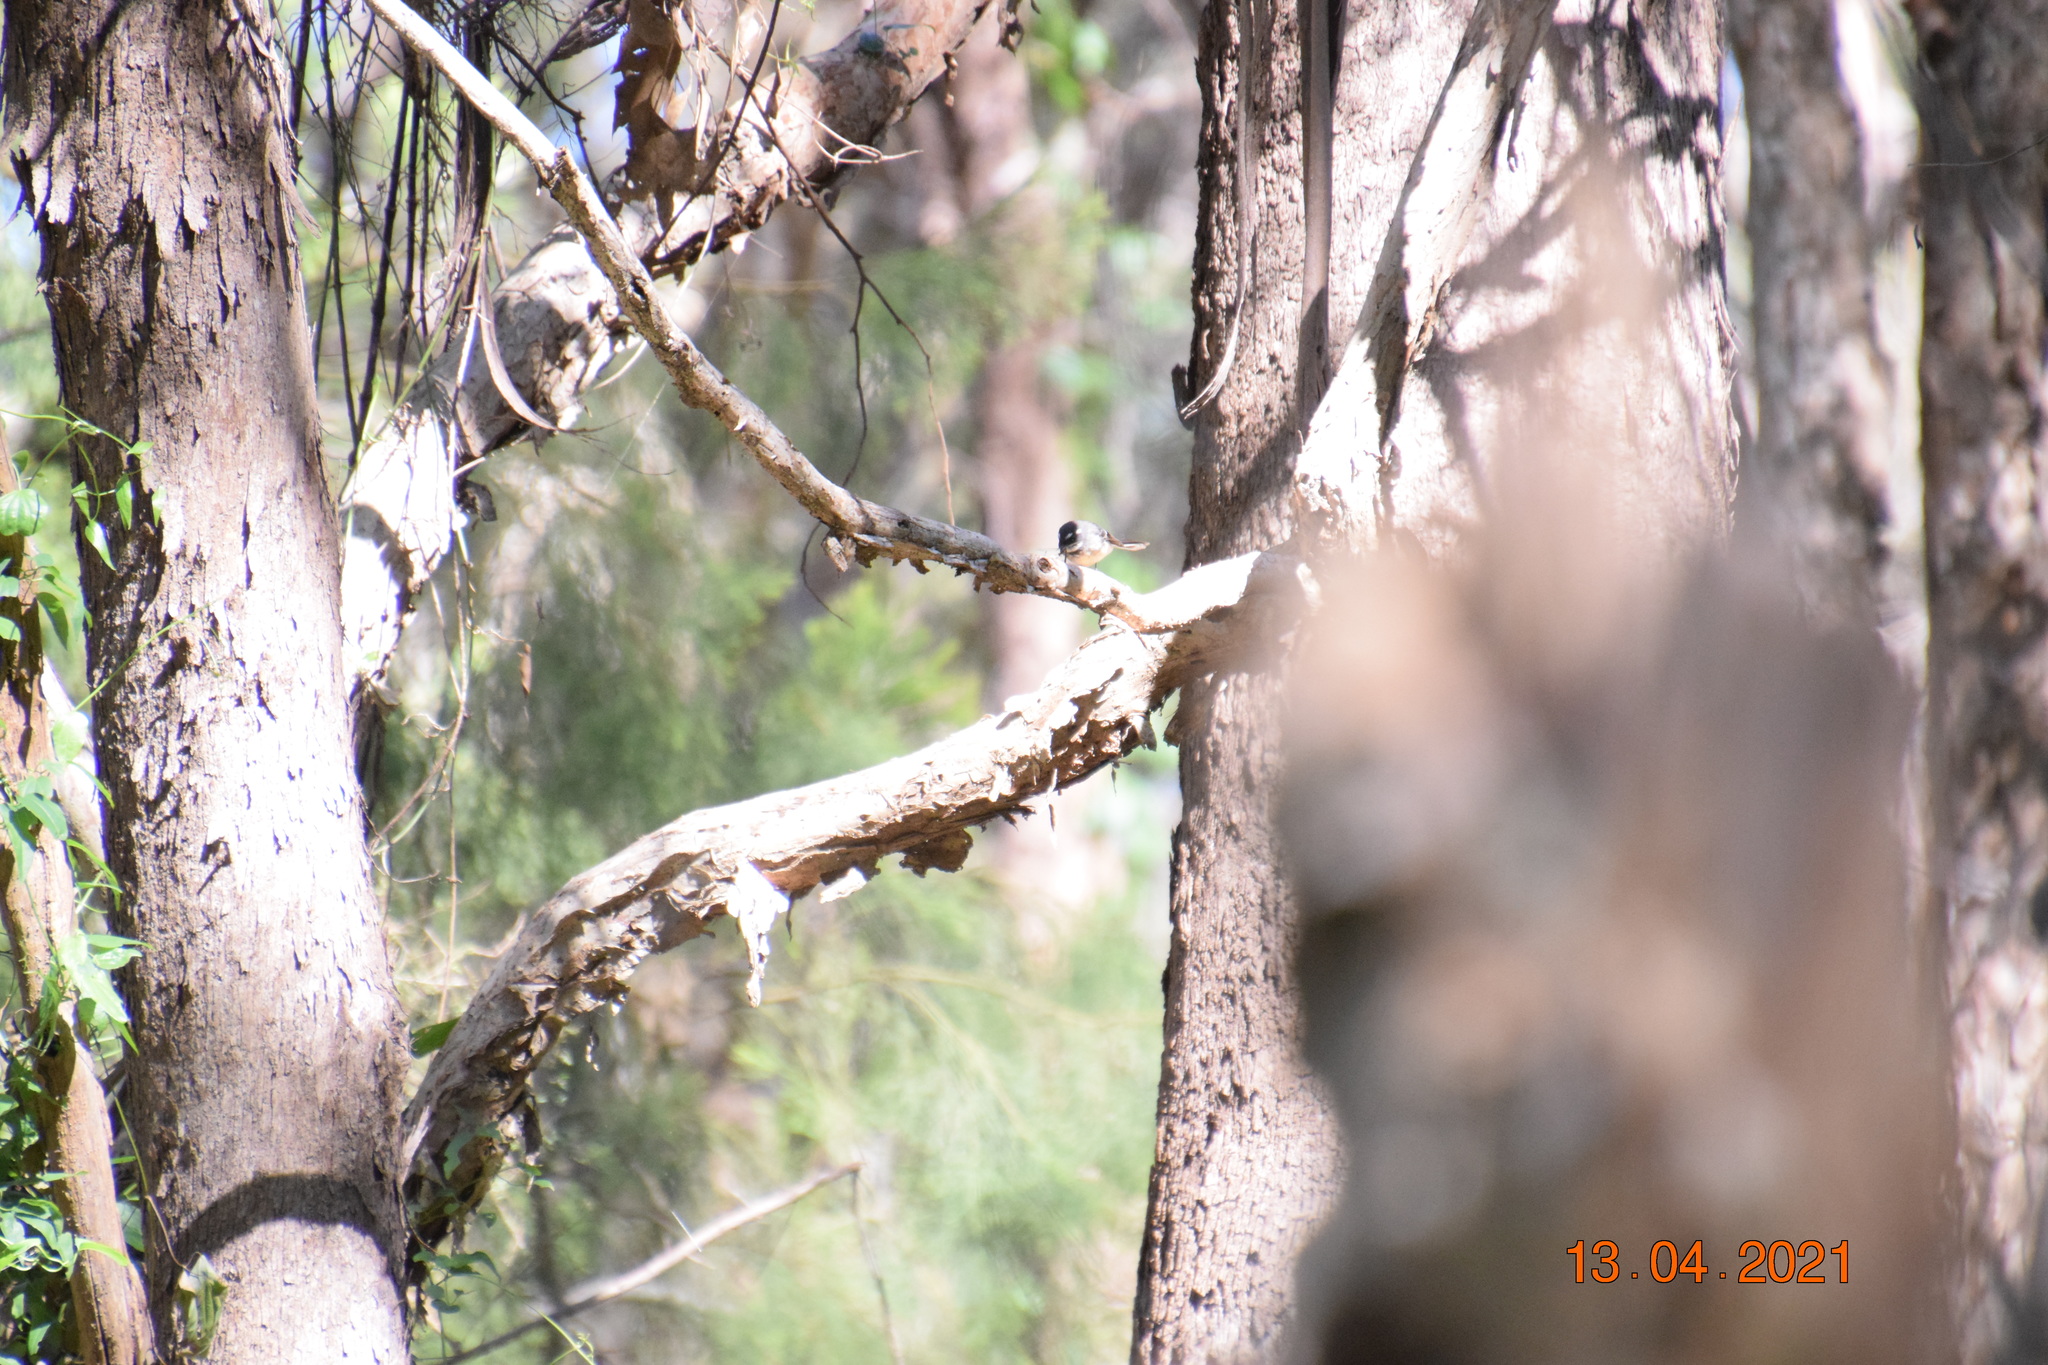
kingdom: Animalia
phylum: Chordata
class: Aves
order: Passeriformes
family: Rhipiduridae
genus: Rhipidura
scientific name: Rhipidura albiscapa
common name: Grey fantail
